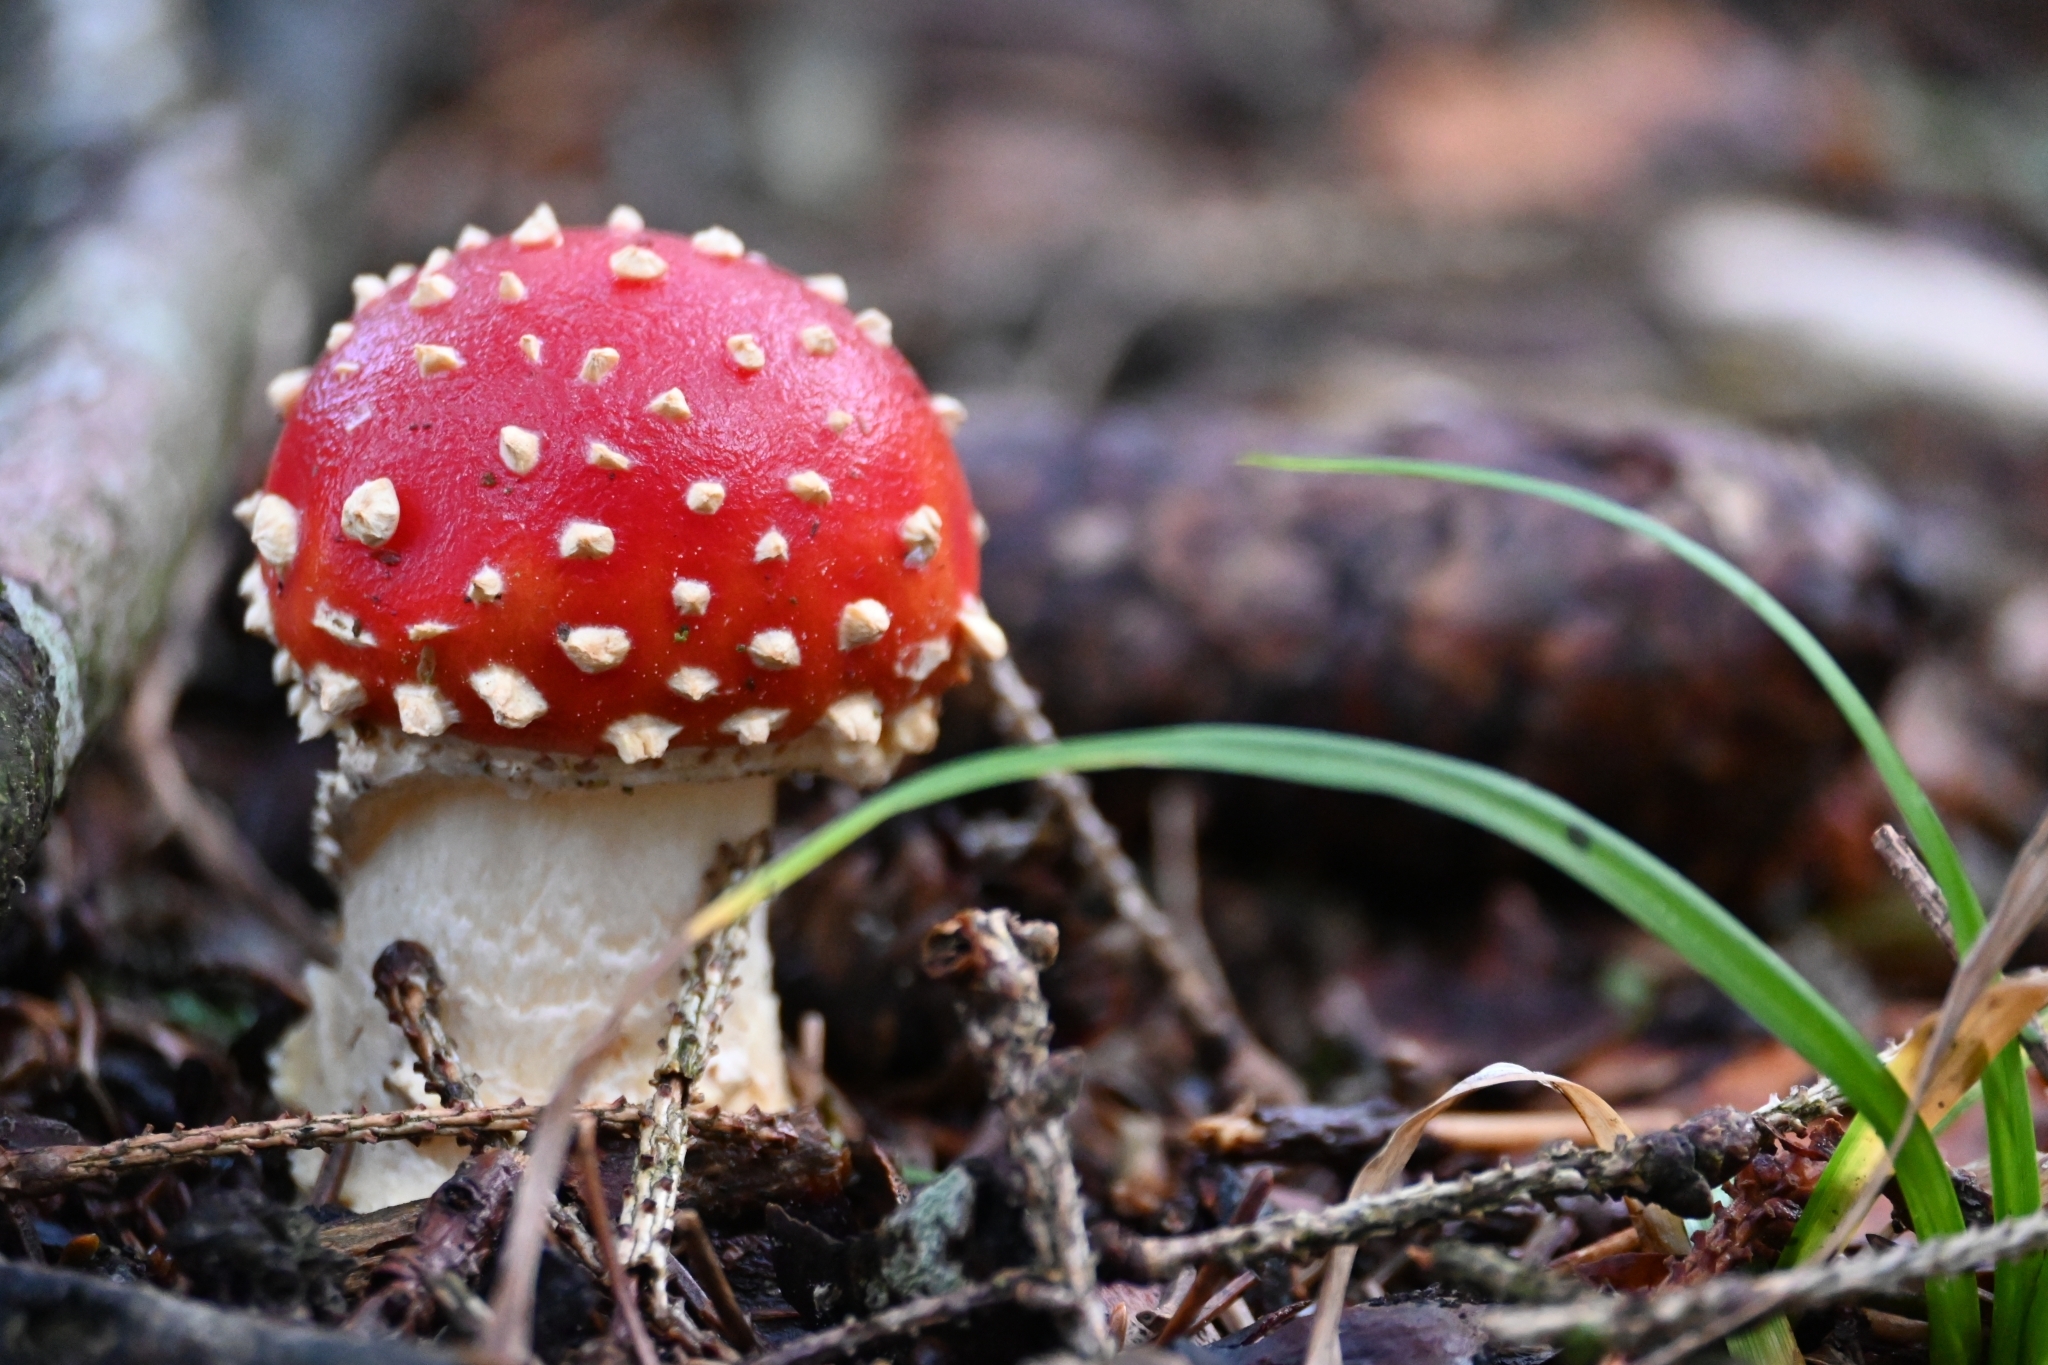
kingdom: Fungi
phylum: Basidiomycota
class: Agaricomycetes
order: Agaricales
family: Amanitaceae
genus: Amanita
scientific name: Amanita muscaria
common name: Fly agaric
